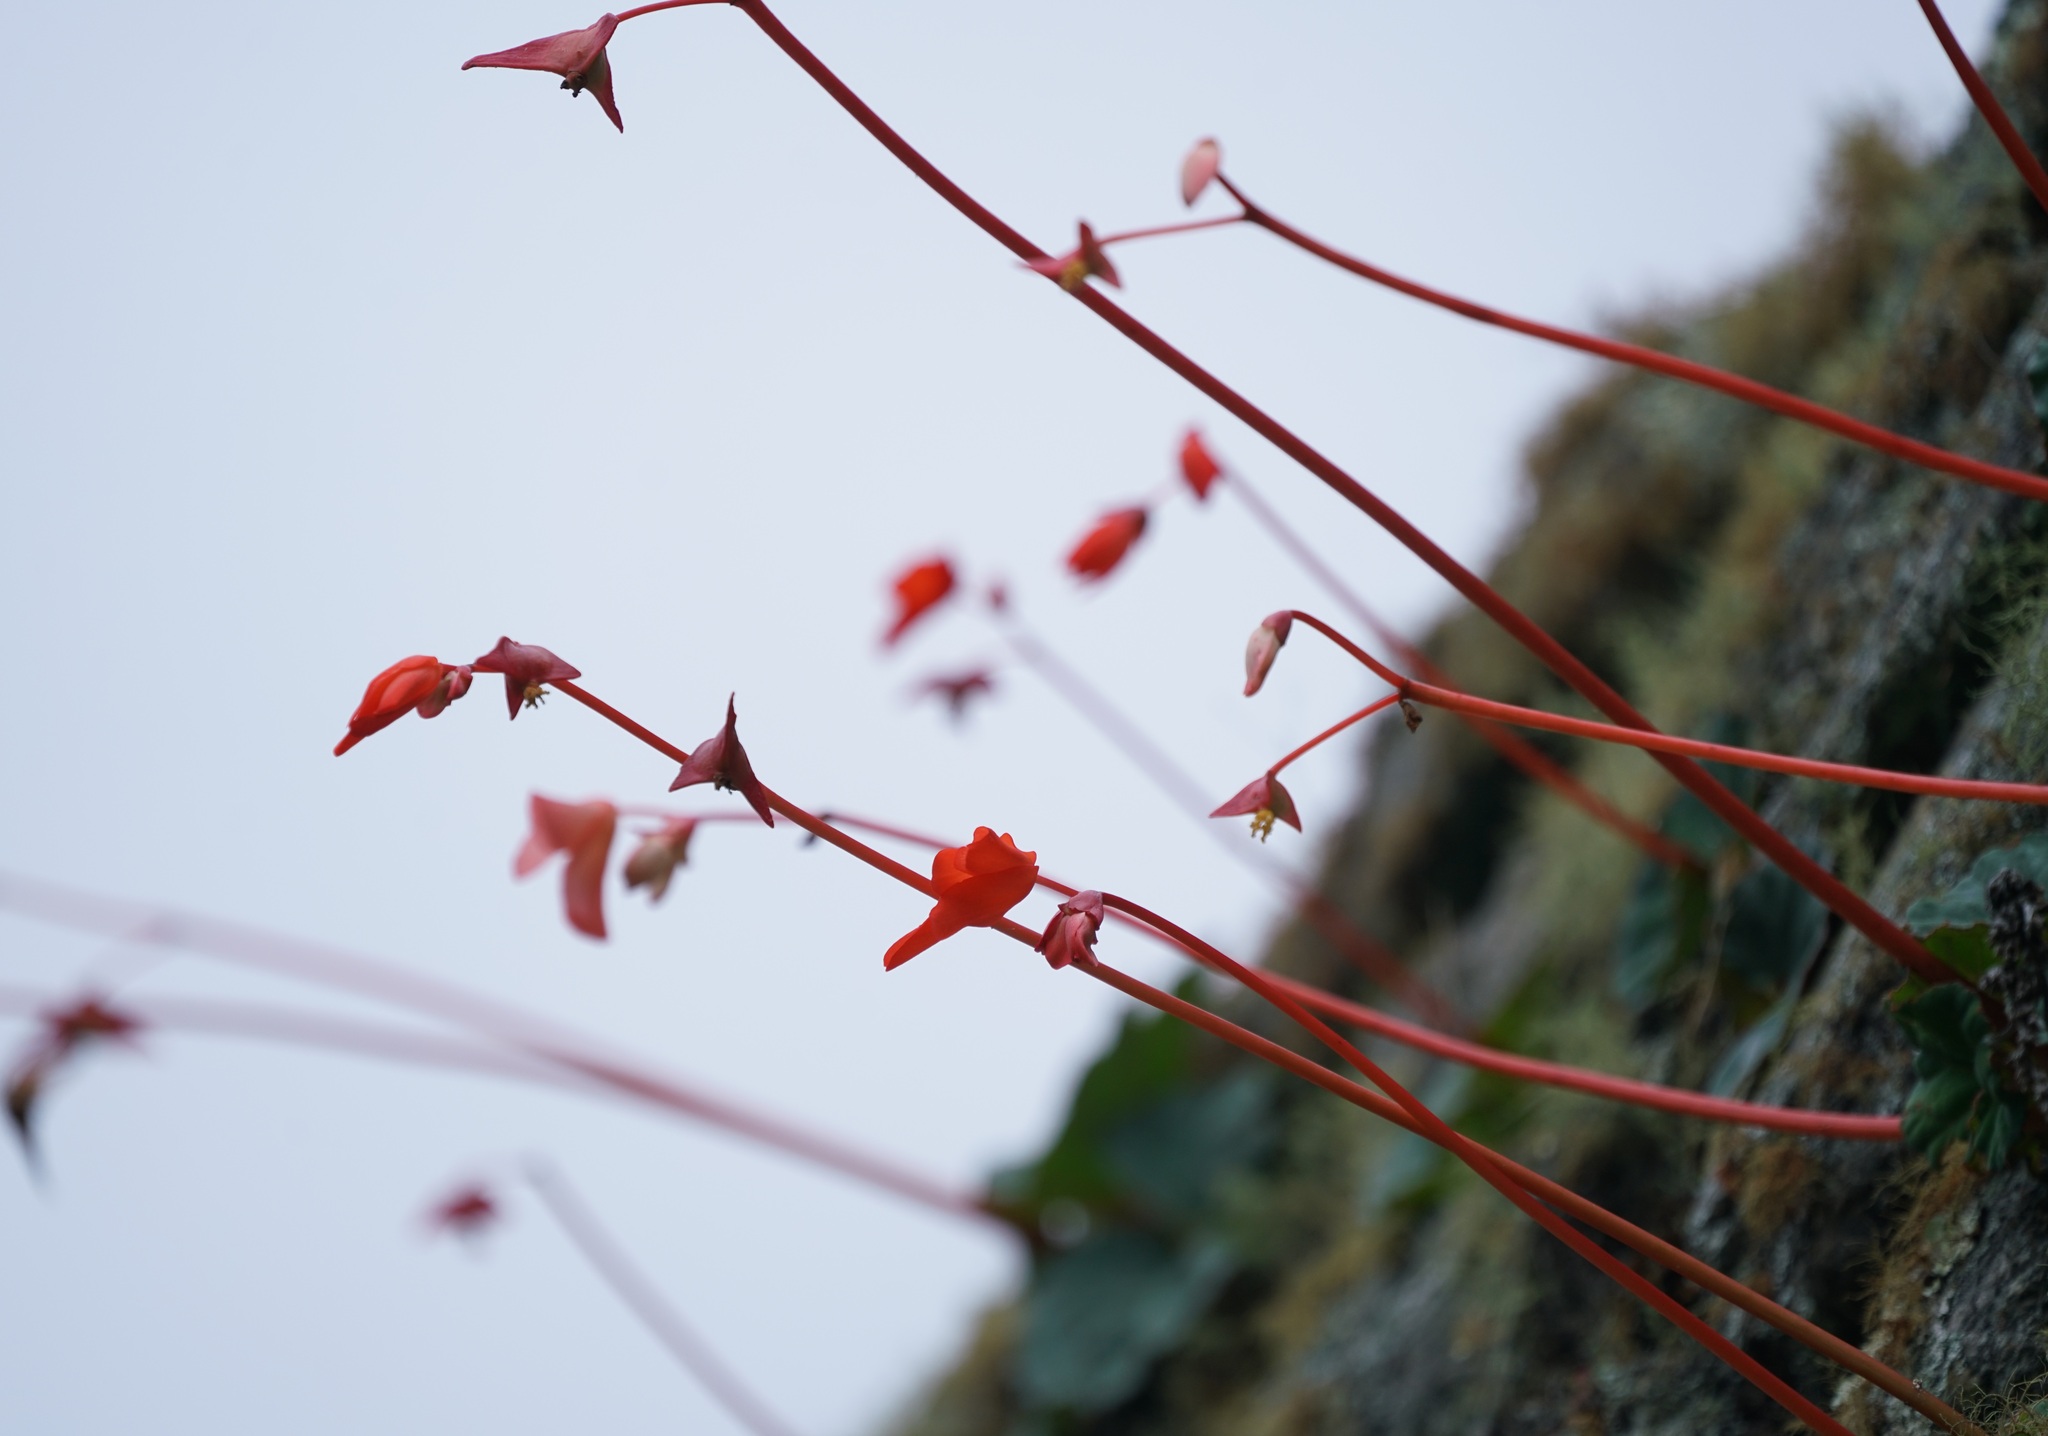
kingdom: Plantae
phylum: Tracheophyta
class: Magnoliopsida
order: Cucurbitales
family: Begoniaceae
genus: Begonia
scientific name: Begonia veitchii
